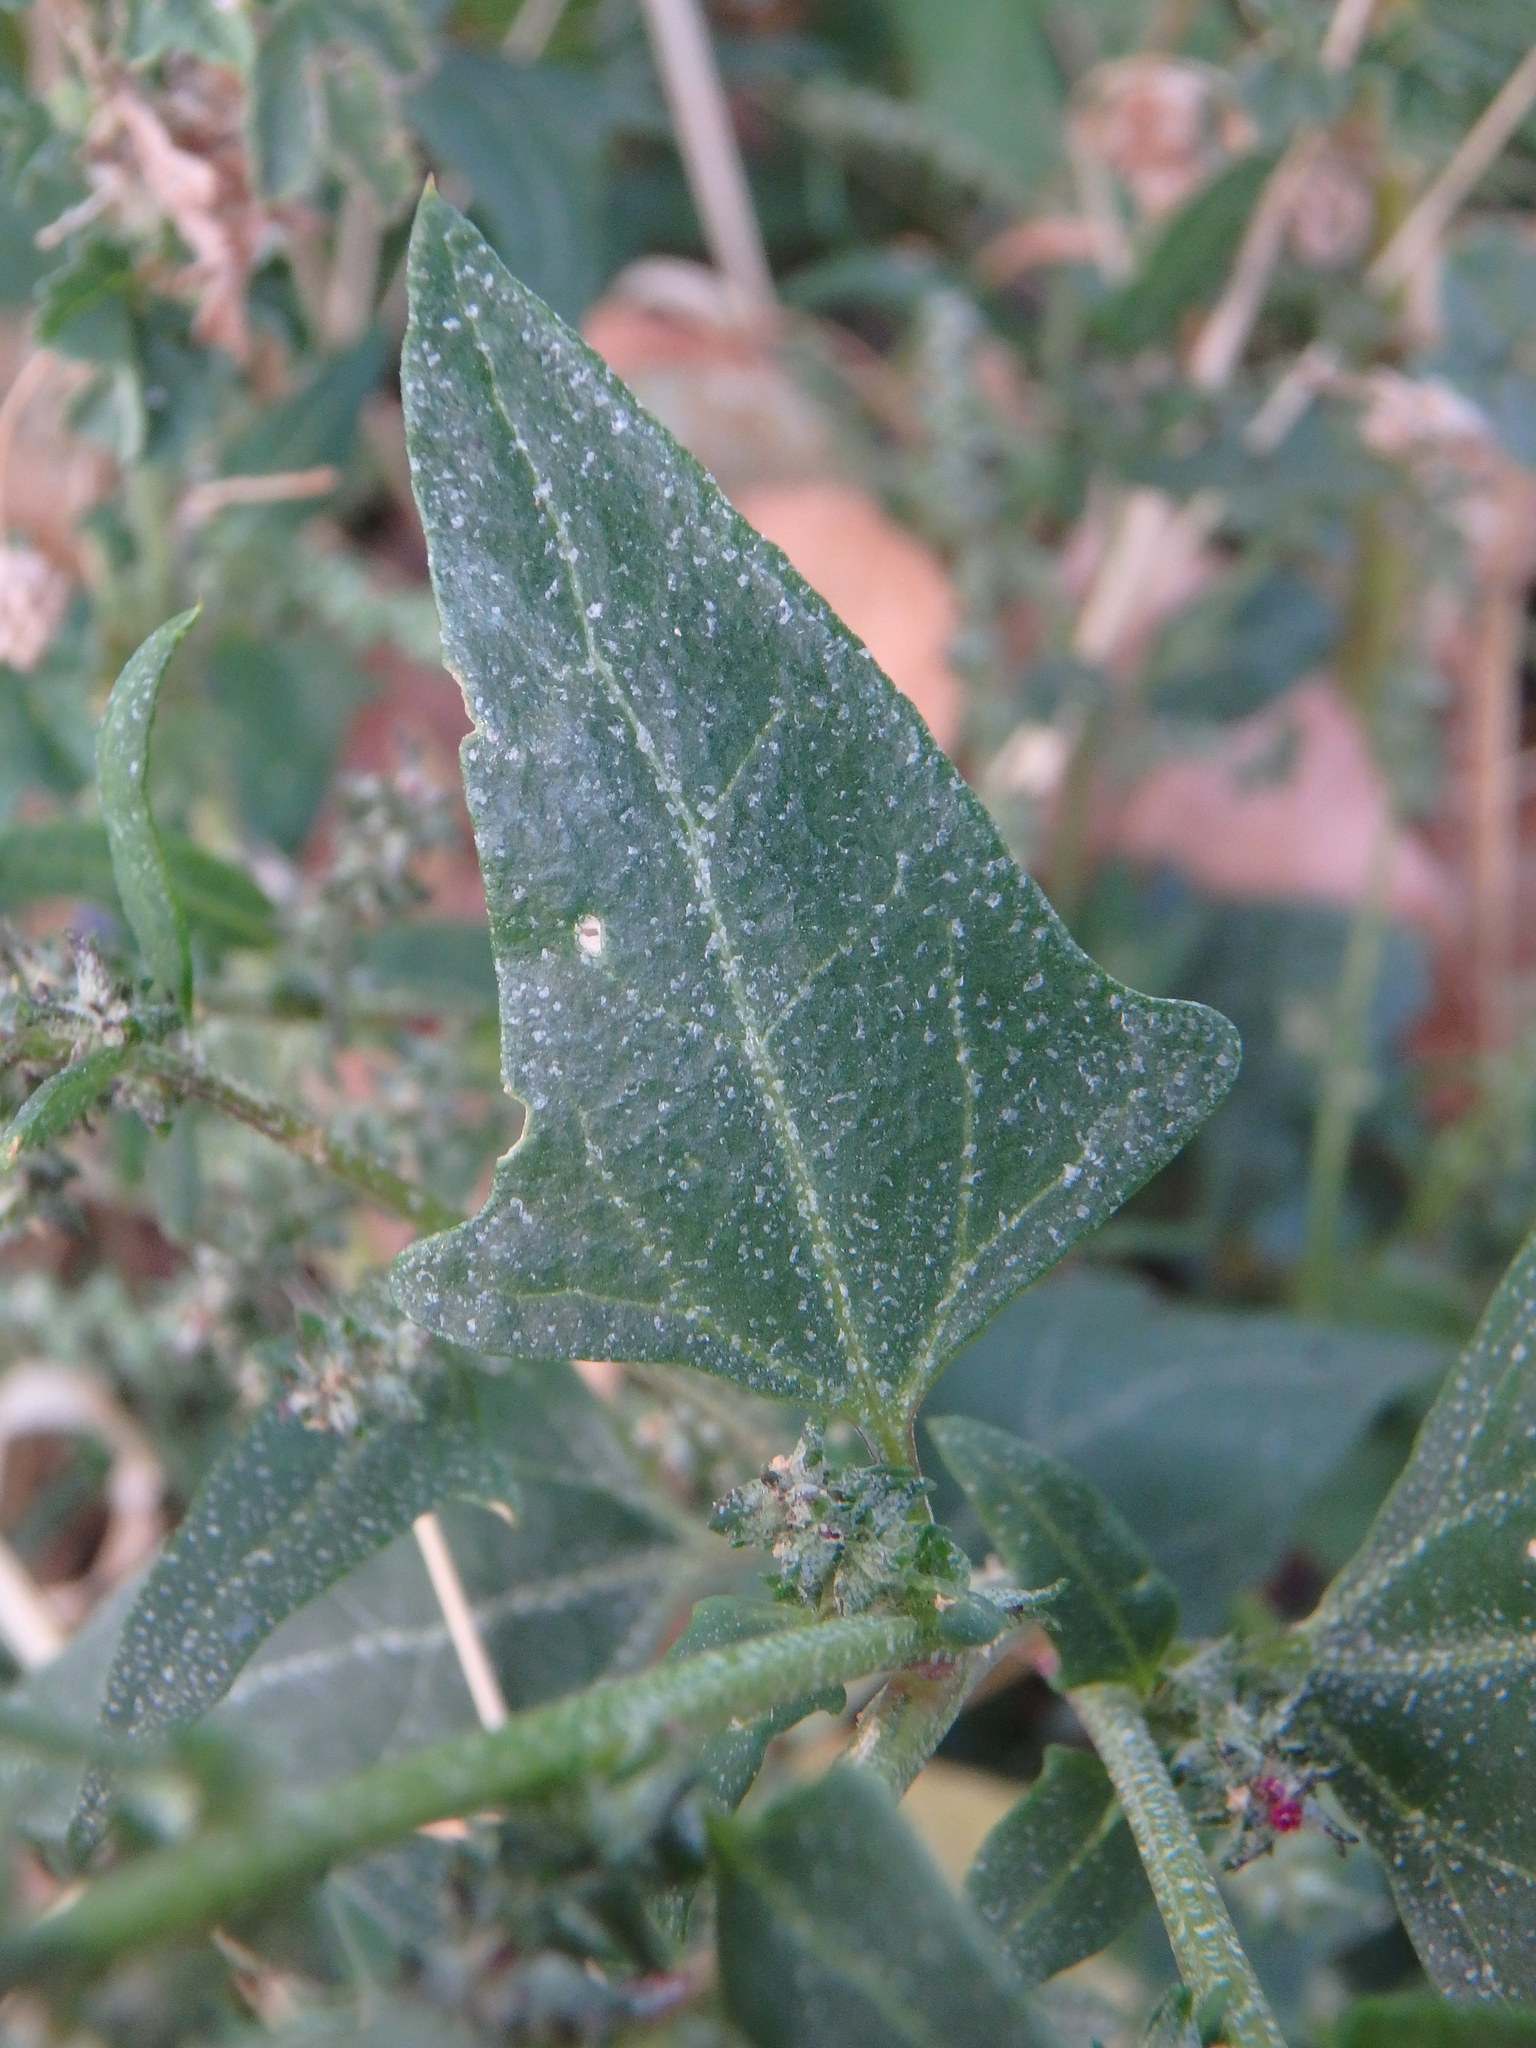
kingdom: Plantae
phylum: Tracheophyta
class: Magnoliopsida
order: Caryophyllales
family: Amaranthaceae
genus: Atriplex
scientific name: Atriplex prostrata
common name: Spear-leaved orache
